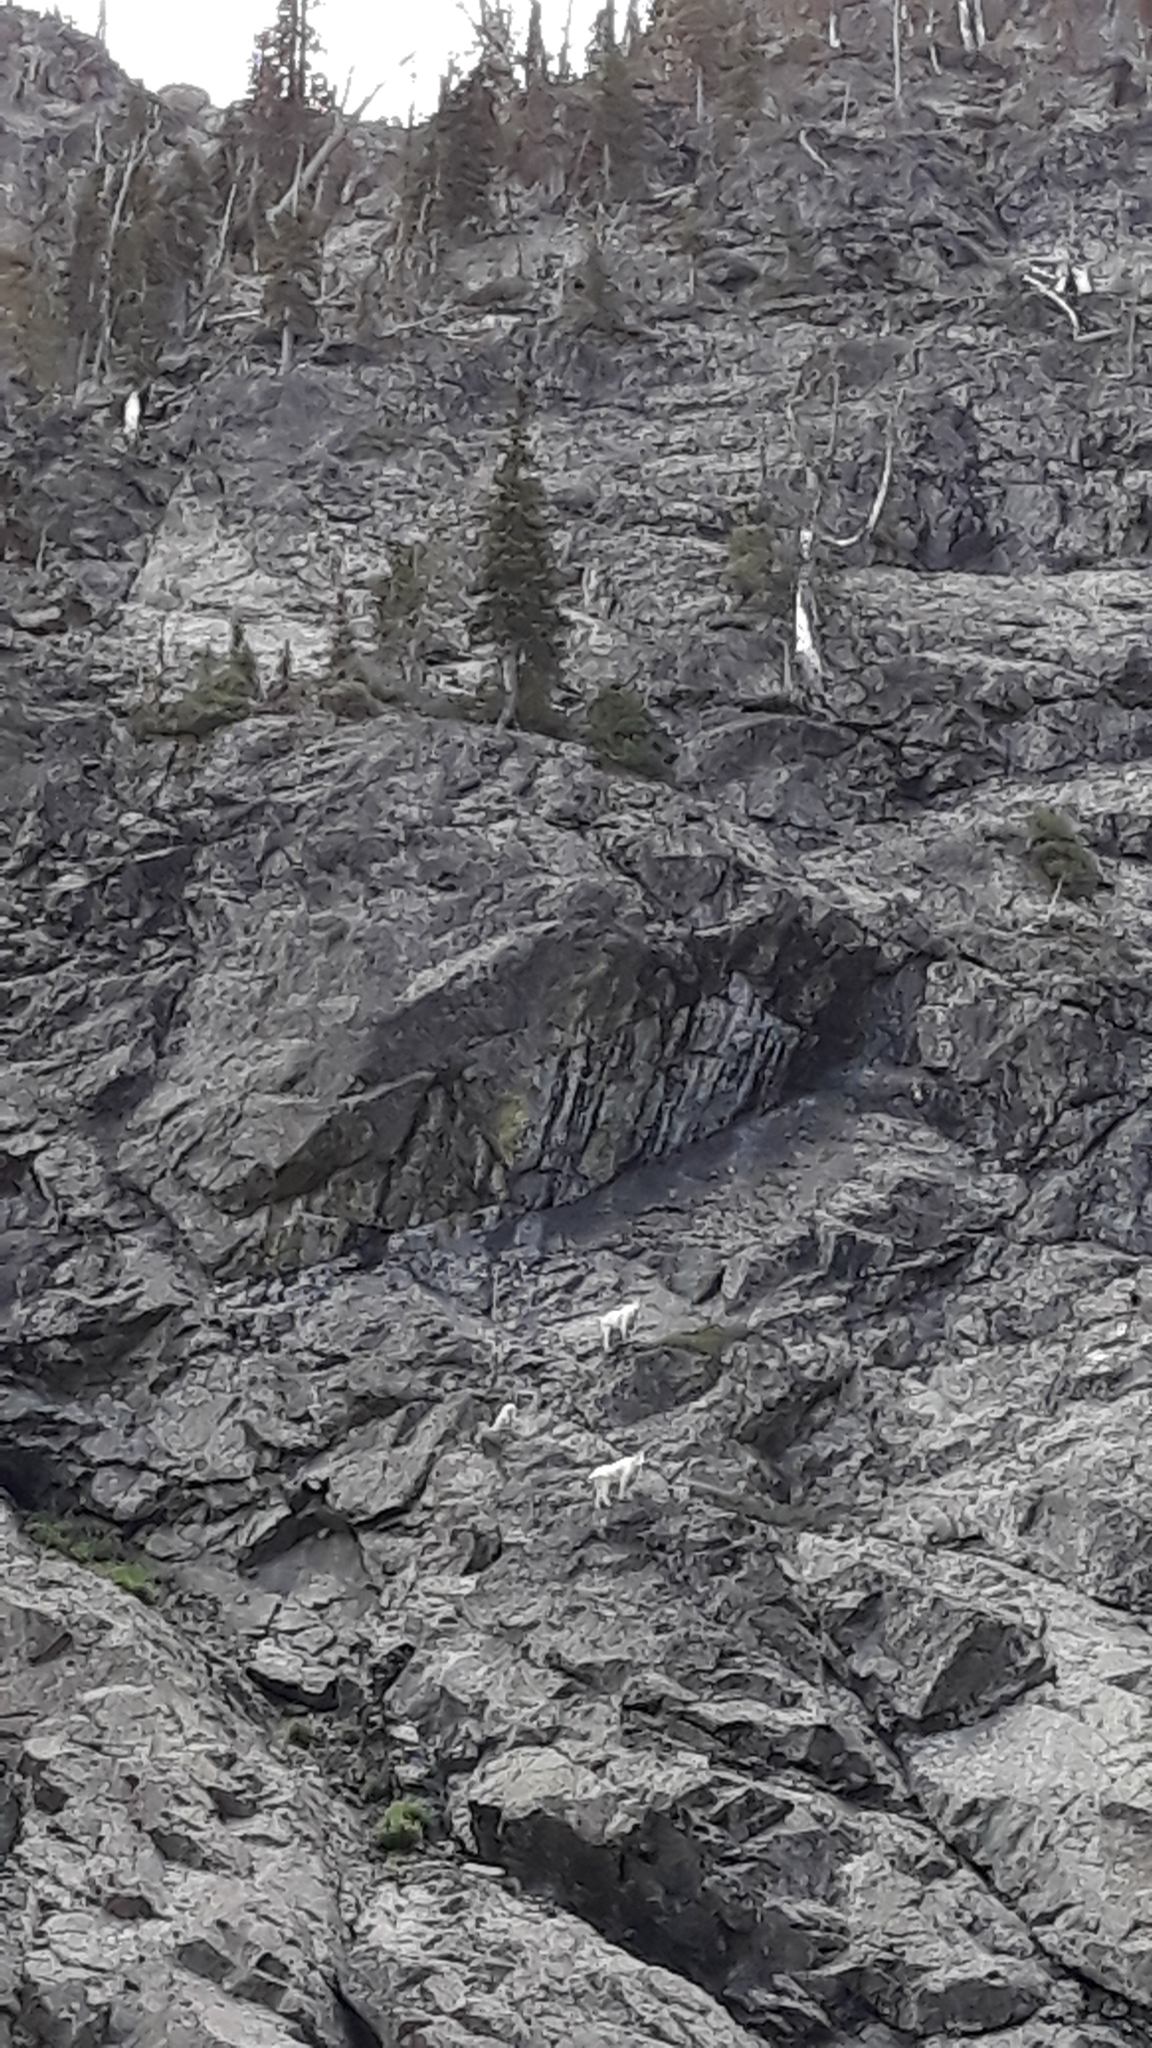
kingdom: Animalia
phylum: Chordata
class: Mammalia
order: Artiodactyla
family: Bovidae
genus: Oreamnos
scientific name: Oreamnos americanus
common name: Mountain goat
